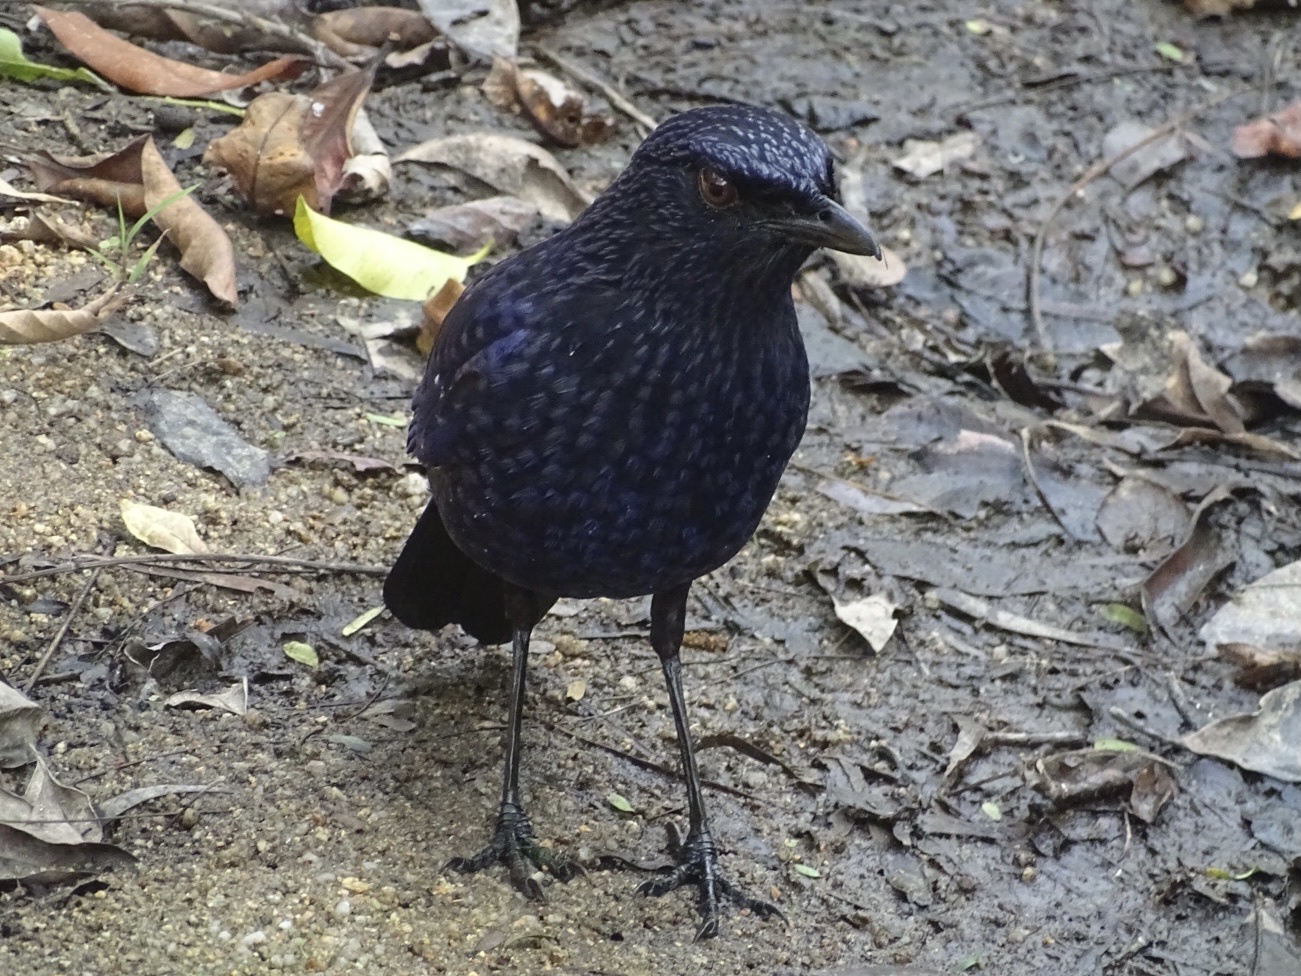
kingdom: Animalia
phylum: Chordata
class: Aves
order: Passeriformes
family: Muscicapidae
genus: Myophonus
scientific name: Myophonus caeruleus
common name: Blue whistling-thrush
